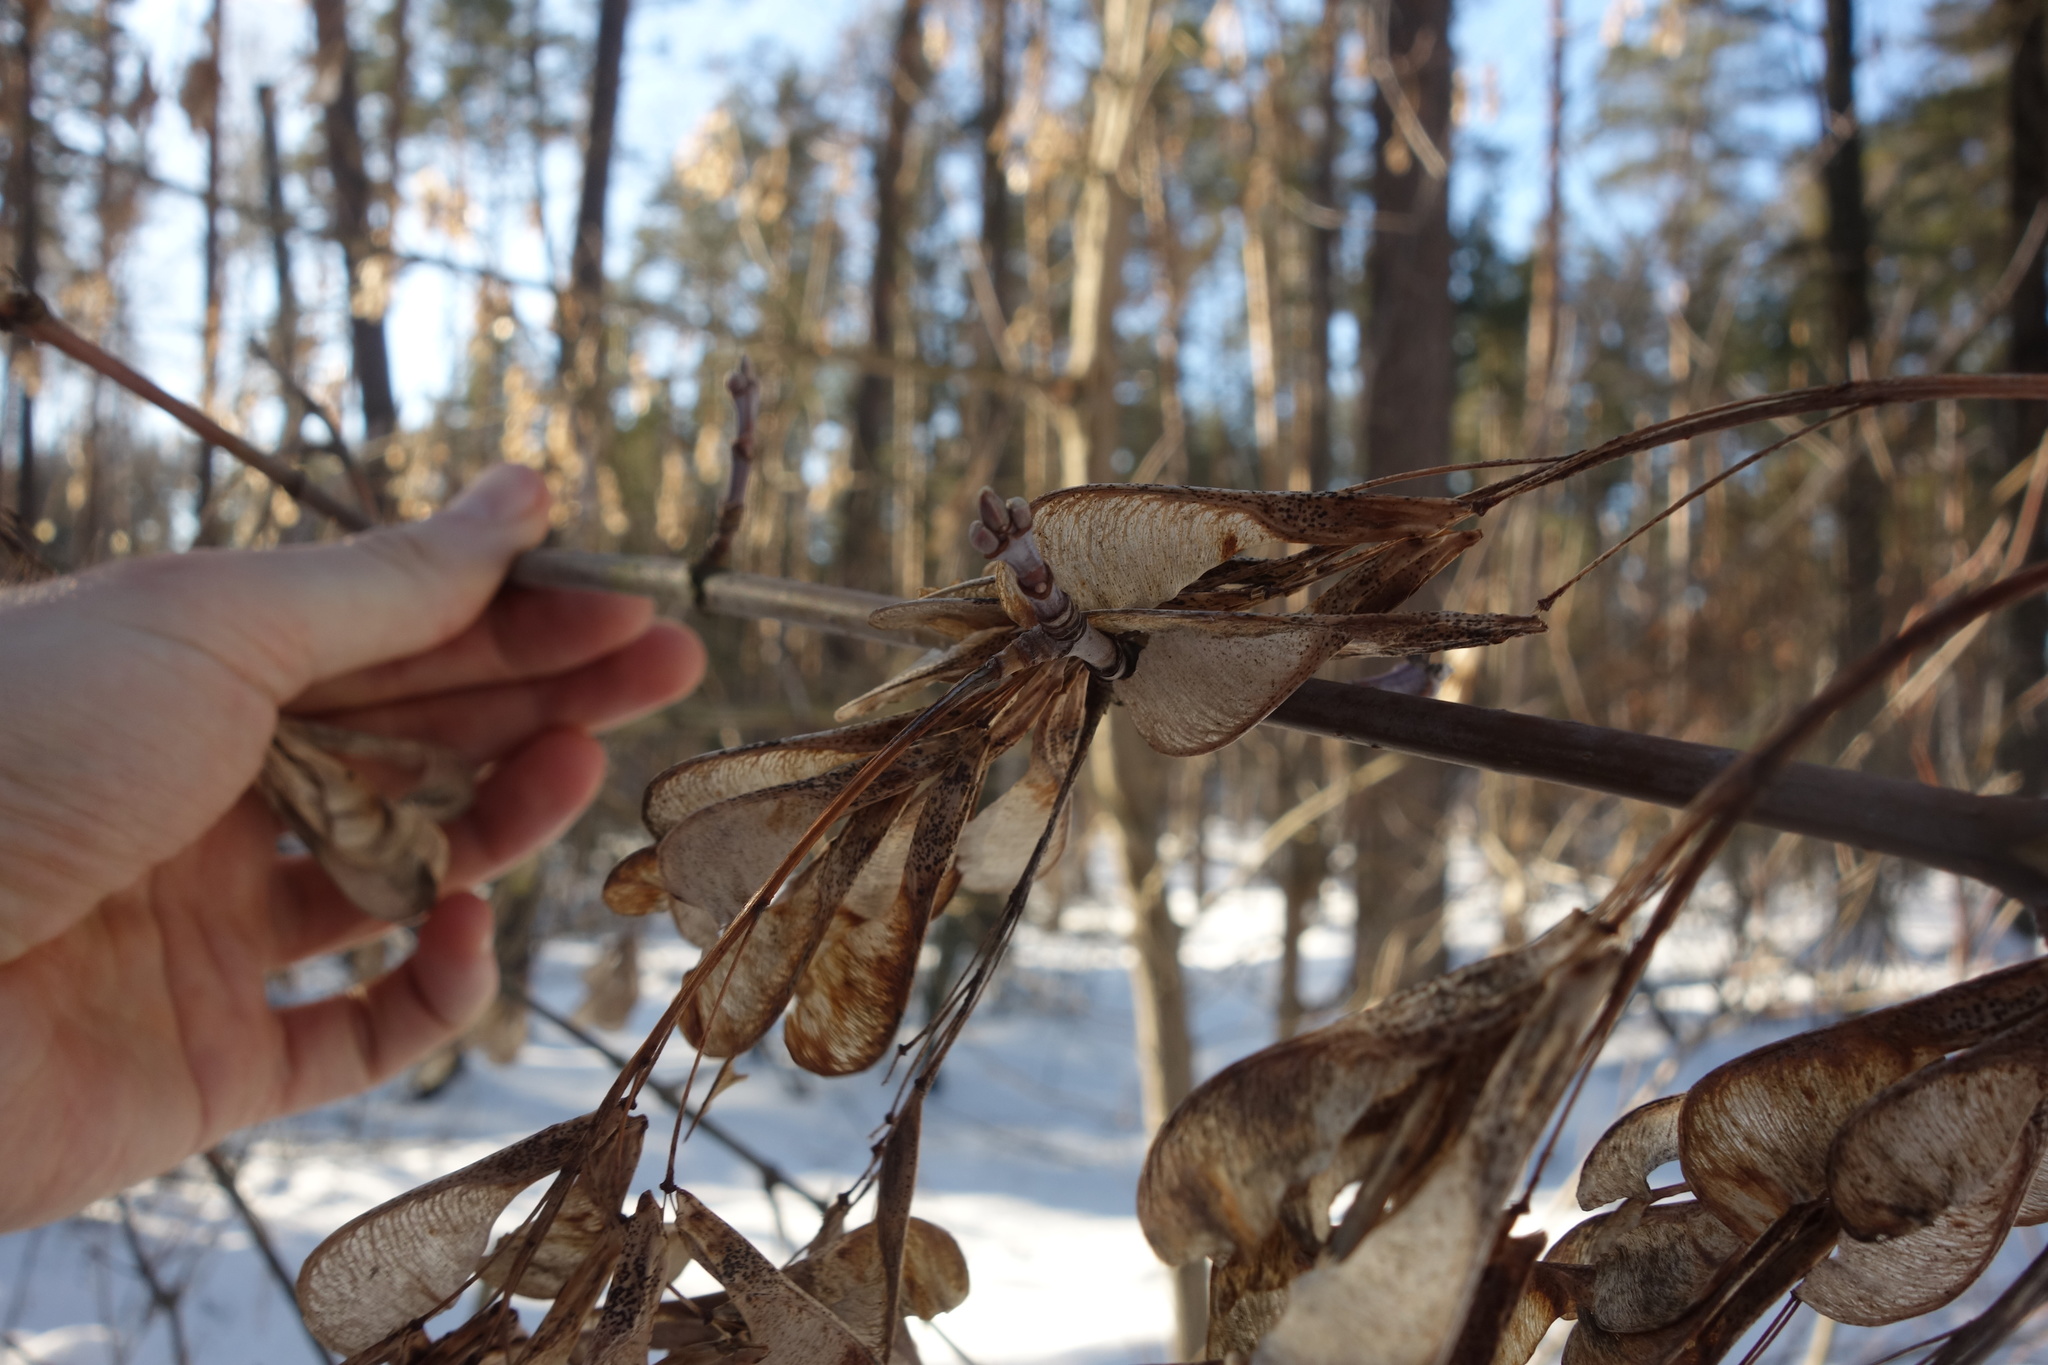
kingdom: Plantae
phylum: Tracheophyta
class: Magnoliopsida
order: Sapindales
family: Sapindaceae
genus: Acer
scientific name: Acer negundo
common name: Ashleaf maple
